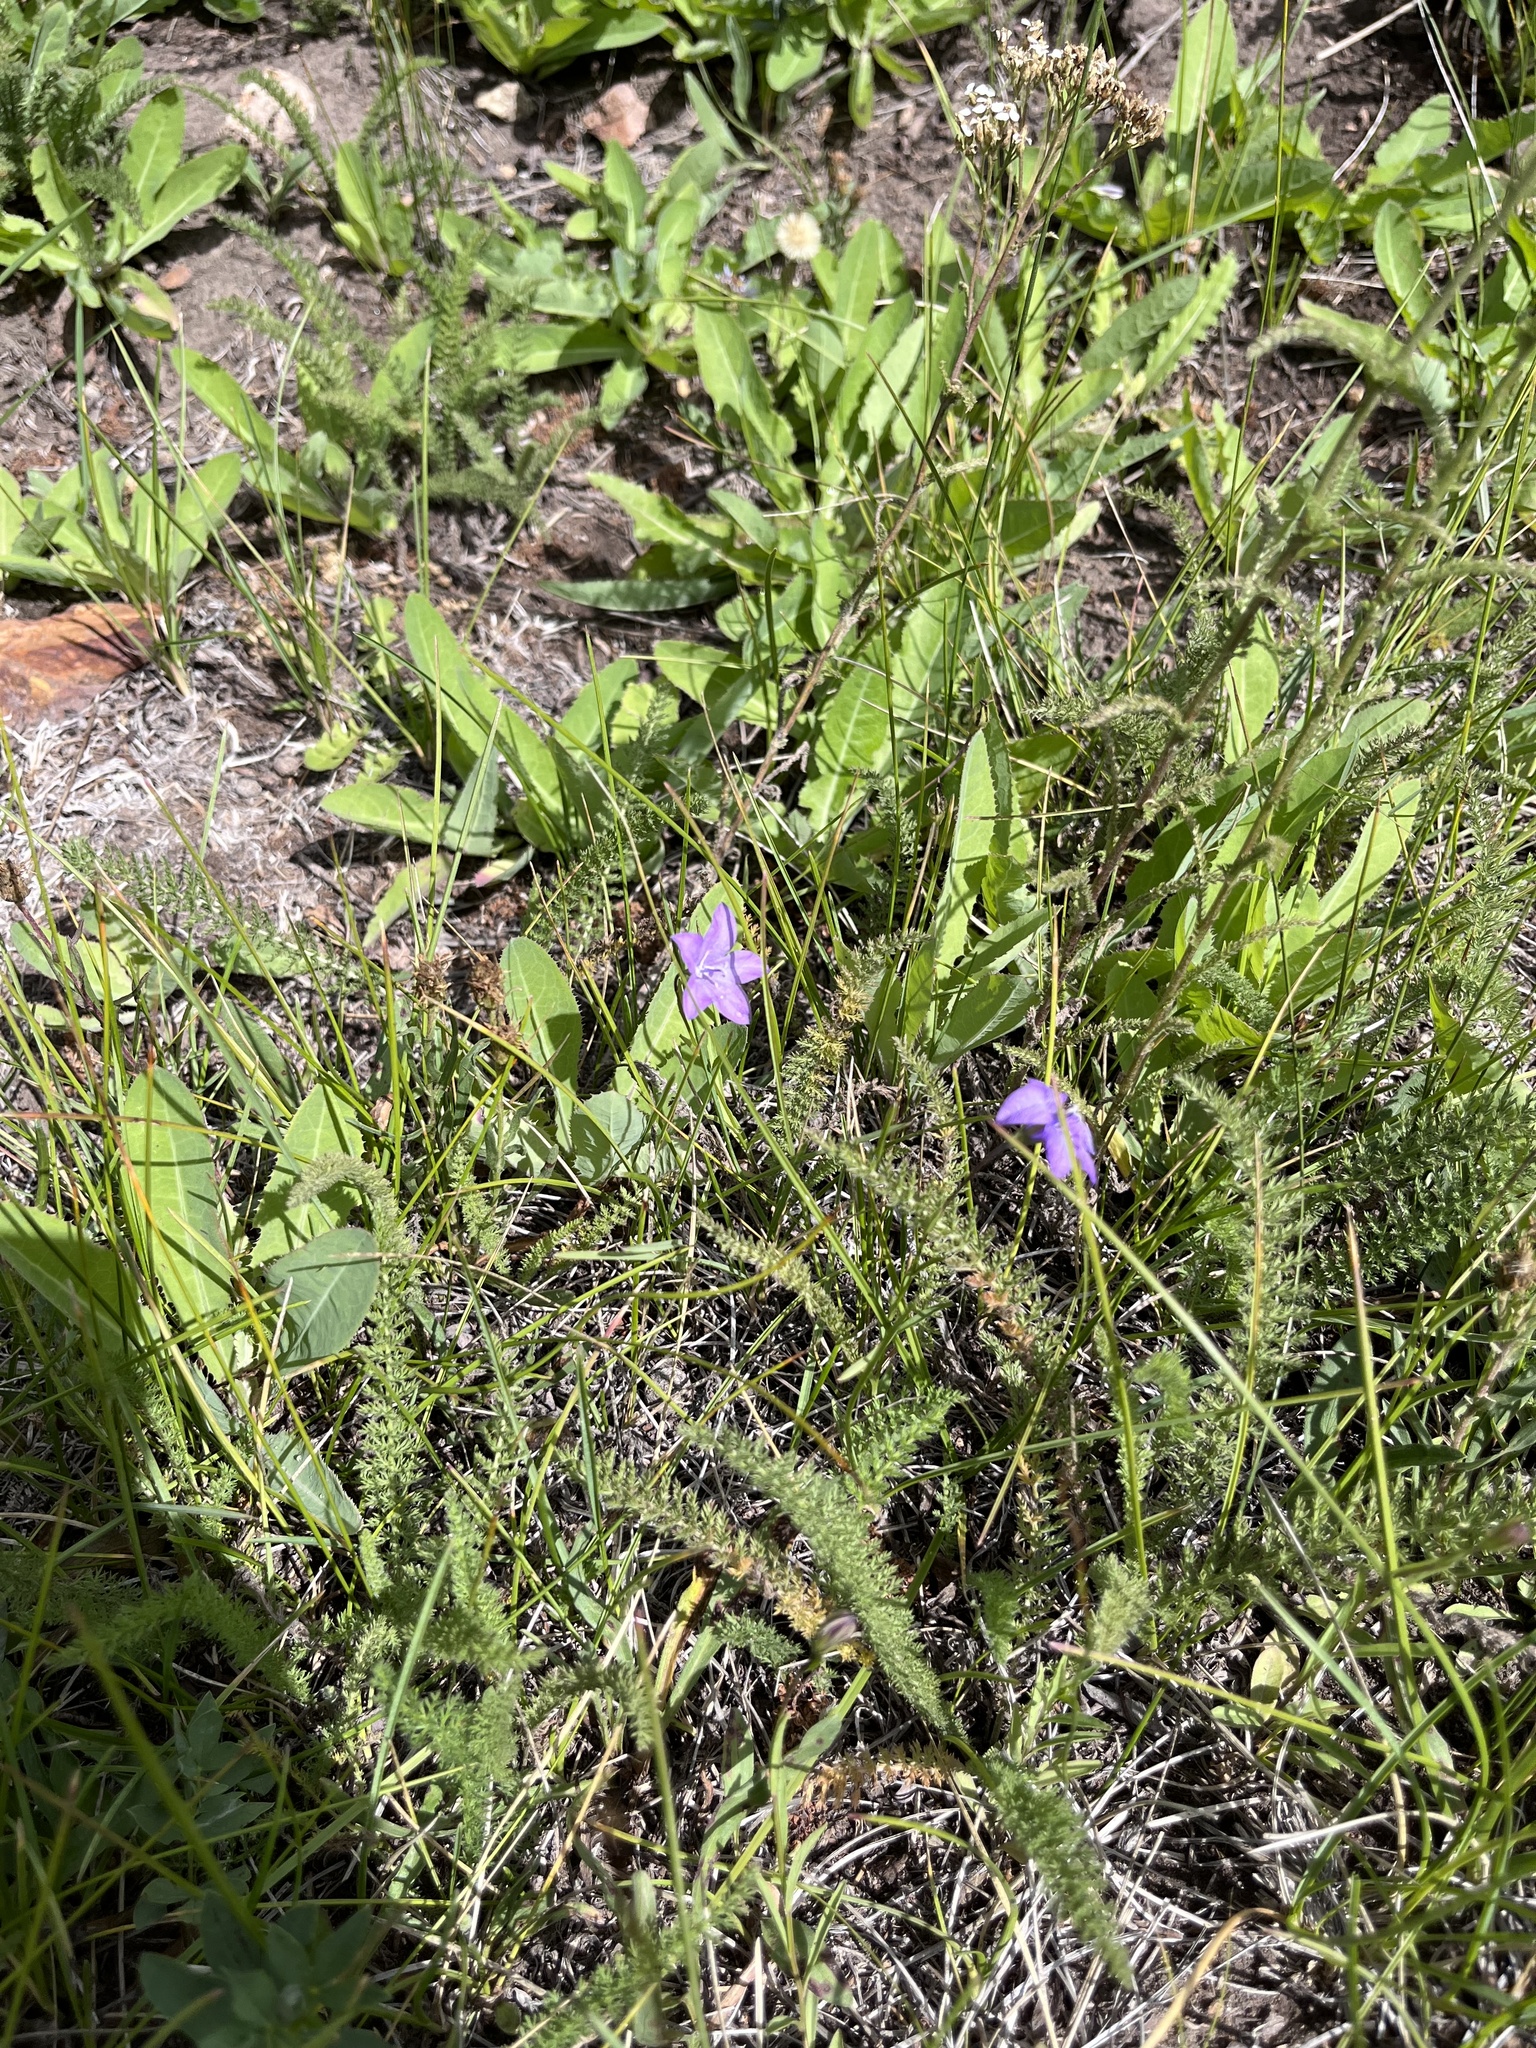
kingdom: Plantae
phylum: Tracheophyta
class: Magnoliopsida
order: Asterales
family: Campanulaceae
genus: Campanula
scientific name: Campanula parryi
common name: Rocky mountain bellflower
